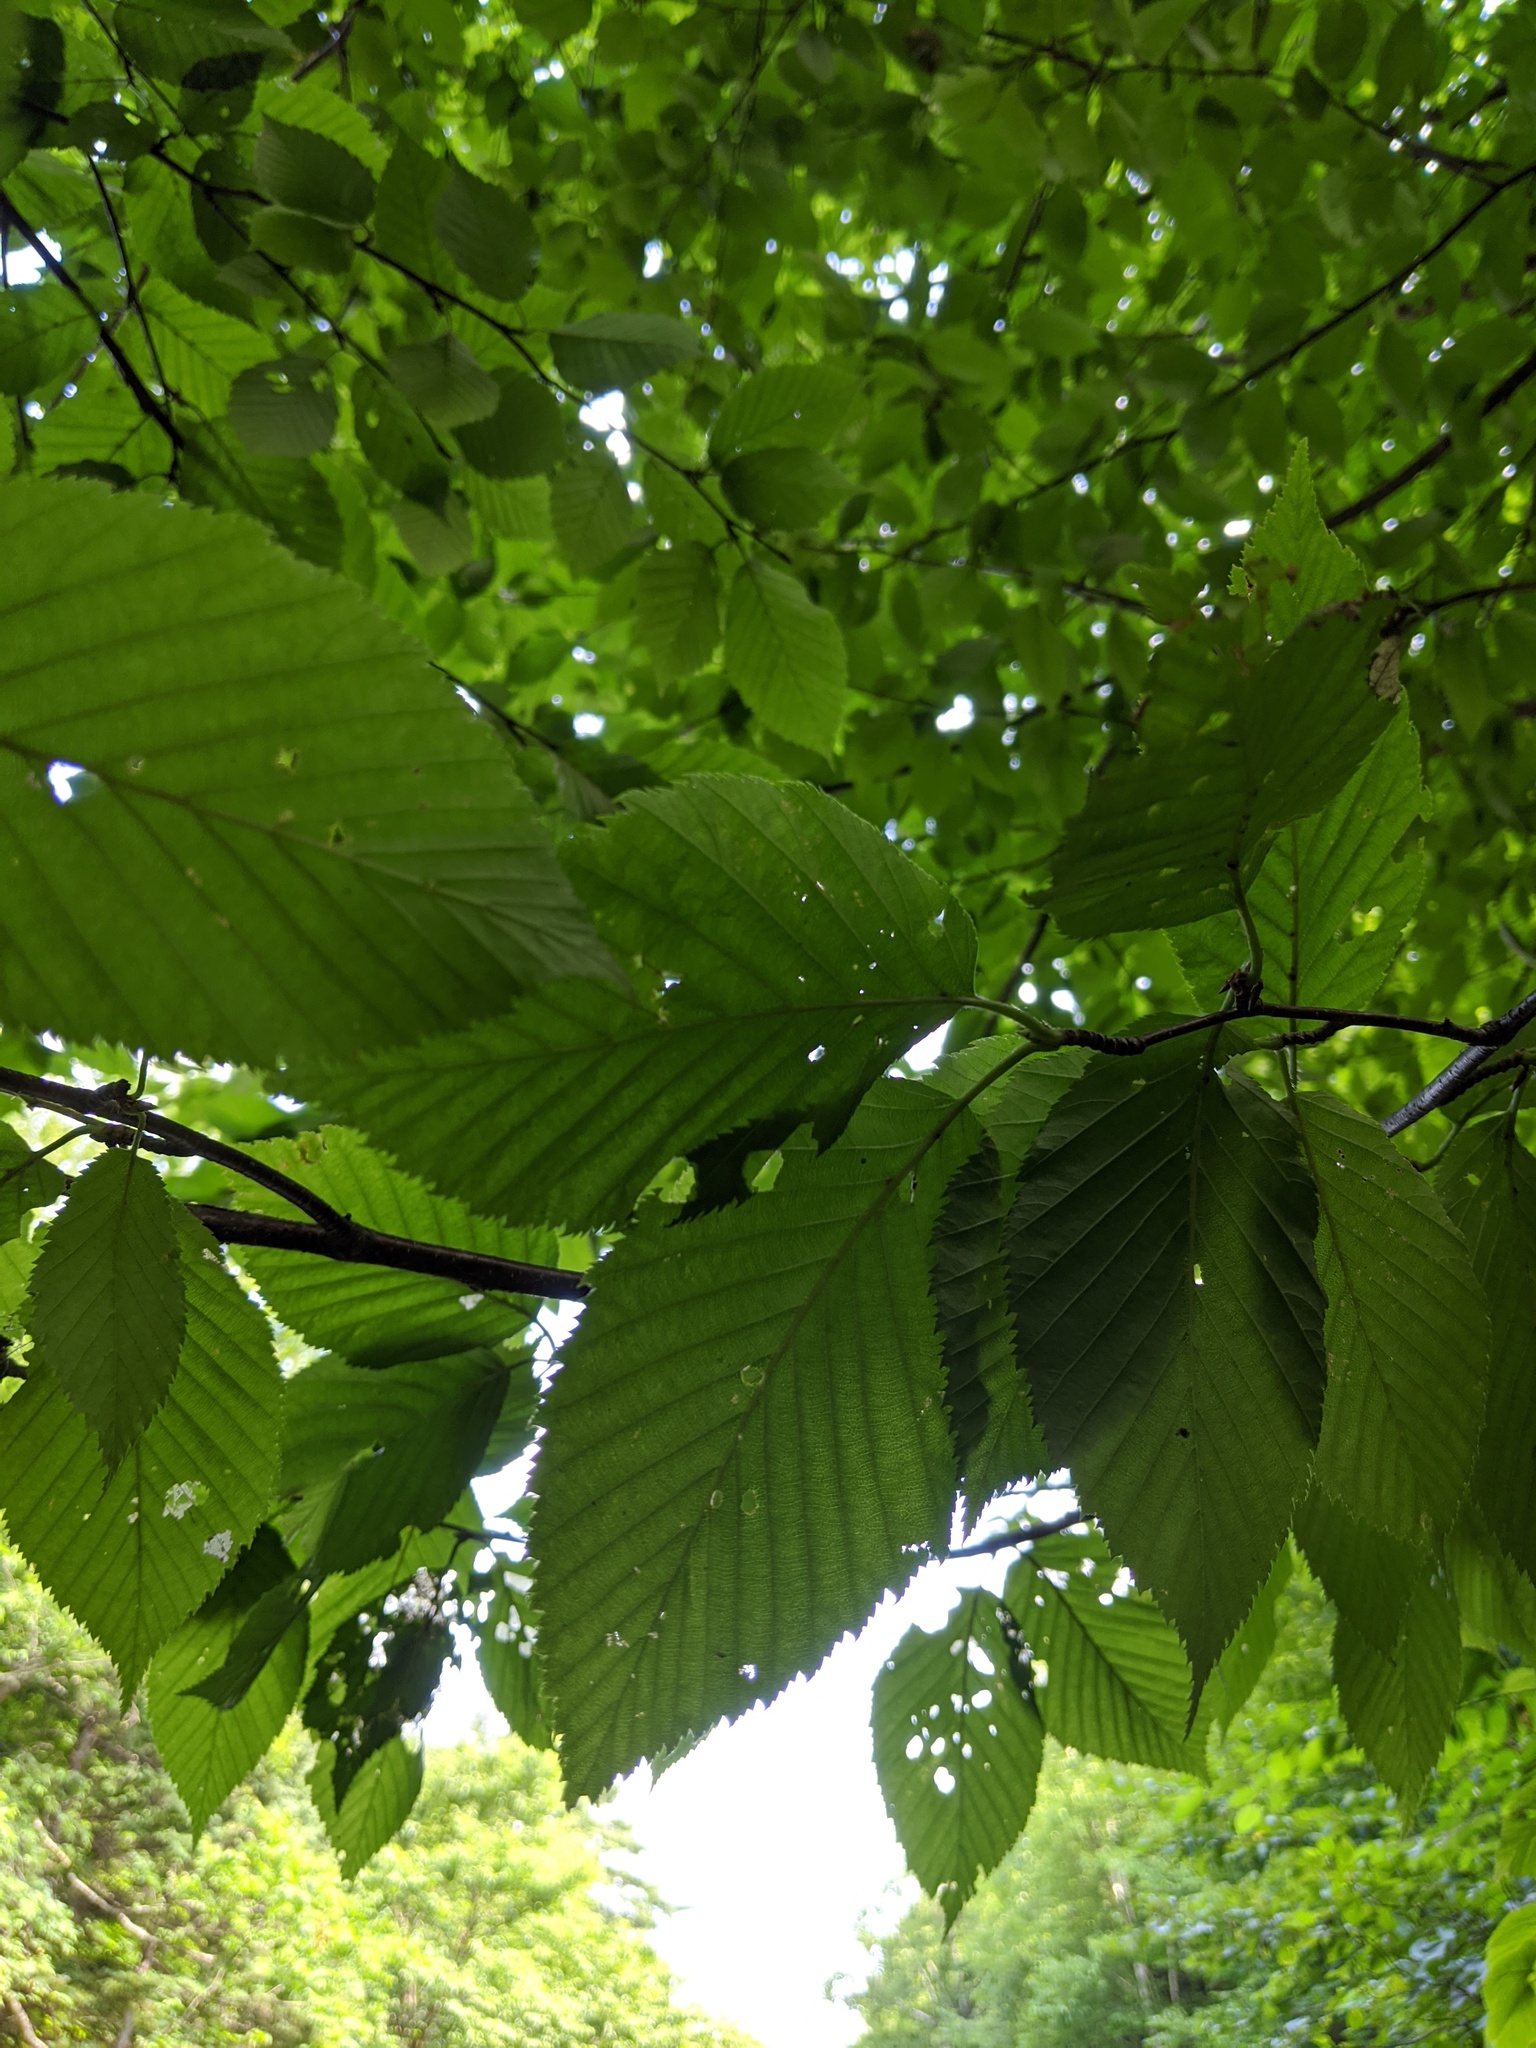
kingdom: Plantae
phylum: Tracheophyta
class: Magnoliopsida
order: Fagales
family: Betulaceae
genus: Betula
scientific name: Betula alleghaniensis
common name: Yellow birch
